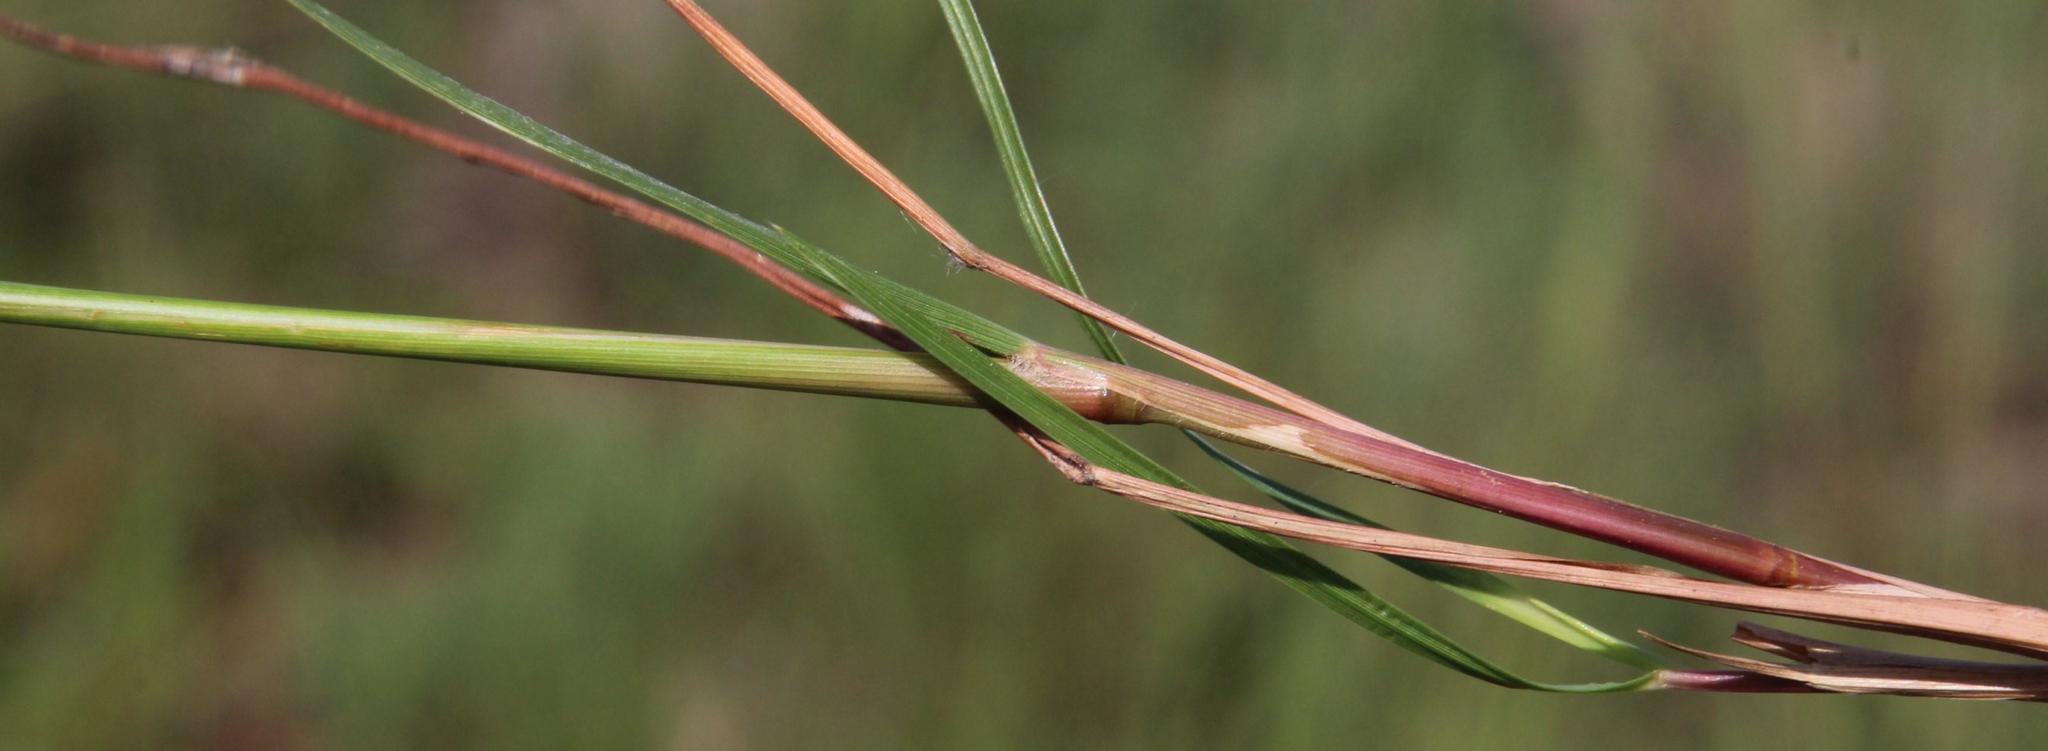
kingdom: Plantae
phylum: Tracheophyta
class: Liliopsida
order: Poales
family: Poaceae
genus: Eragrostis
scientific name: Eragrostis capensis
